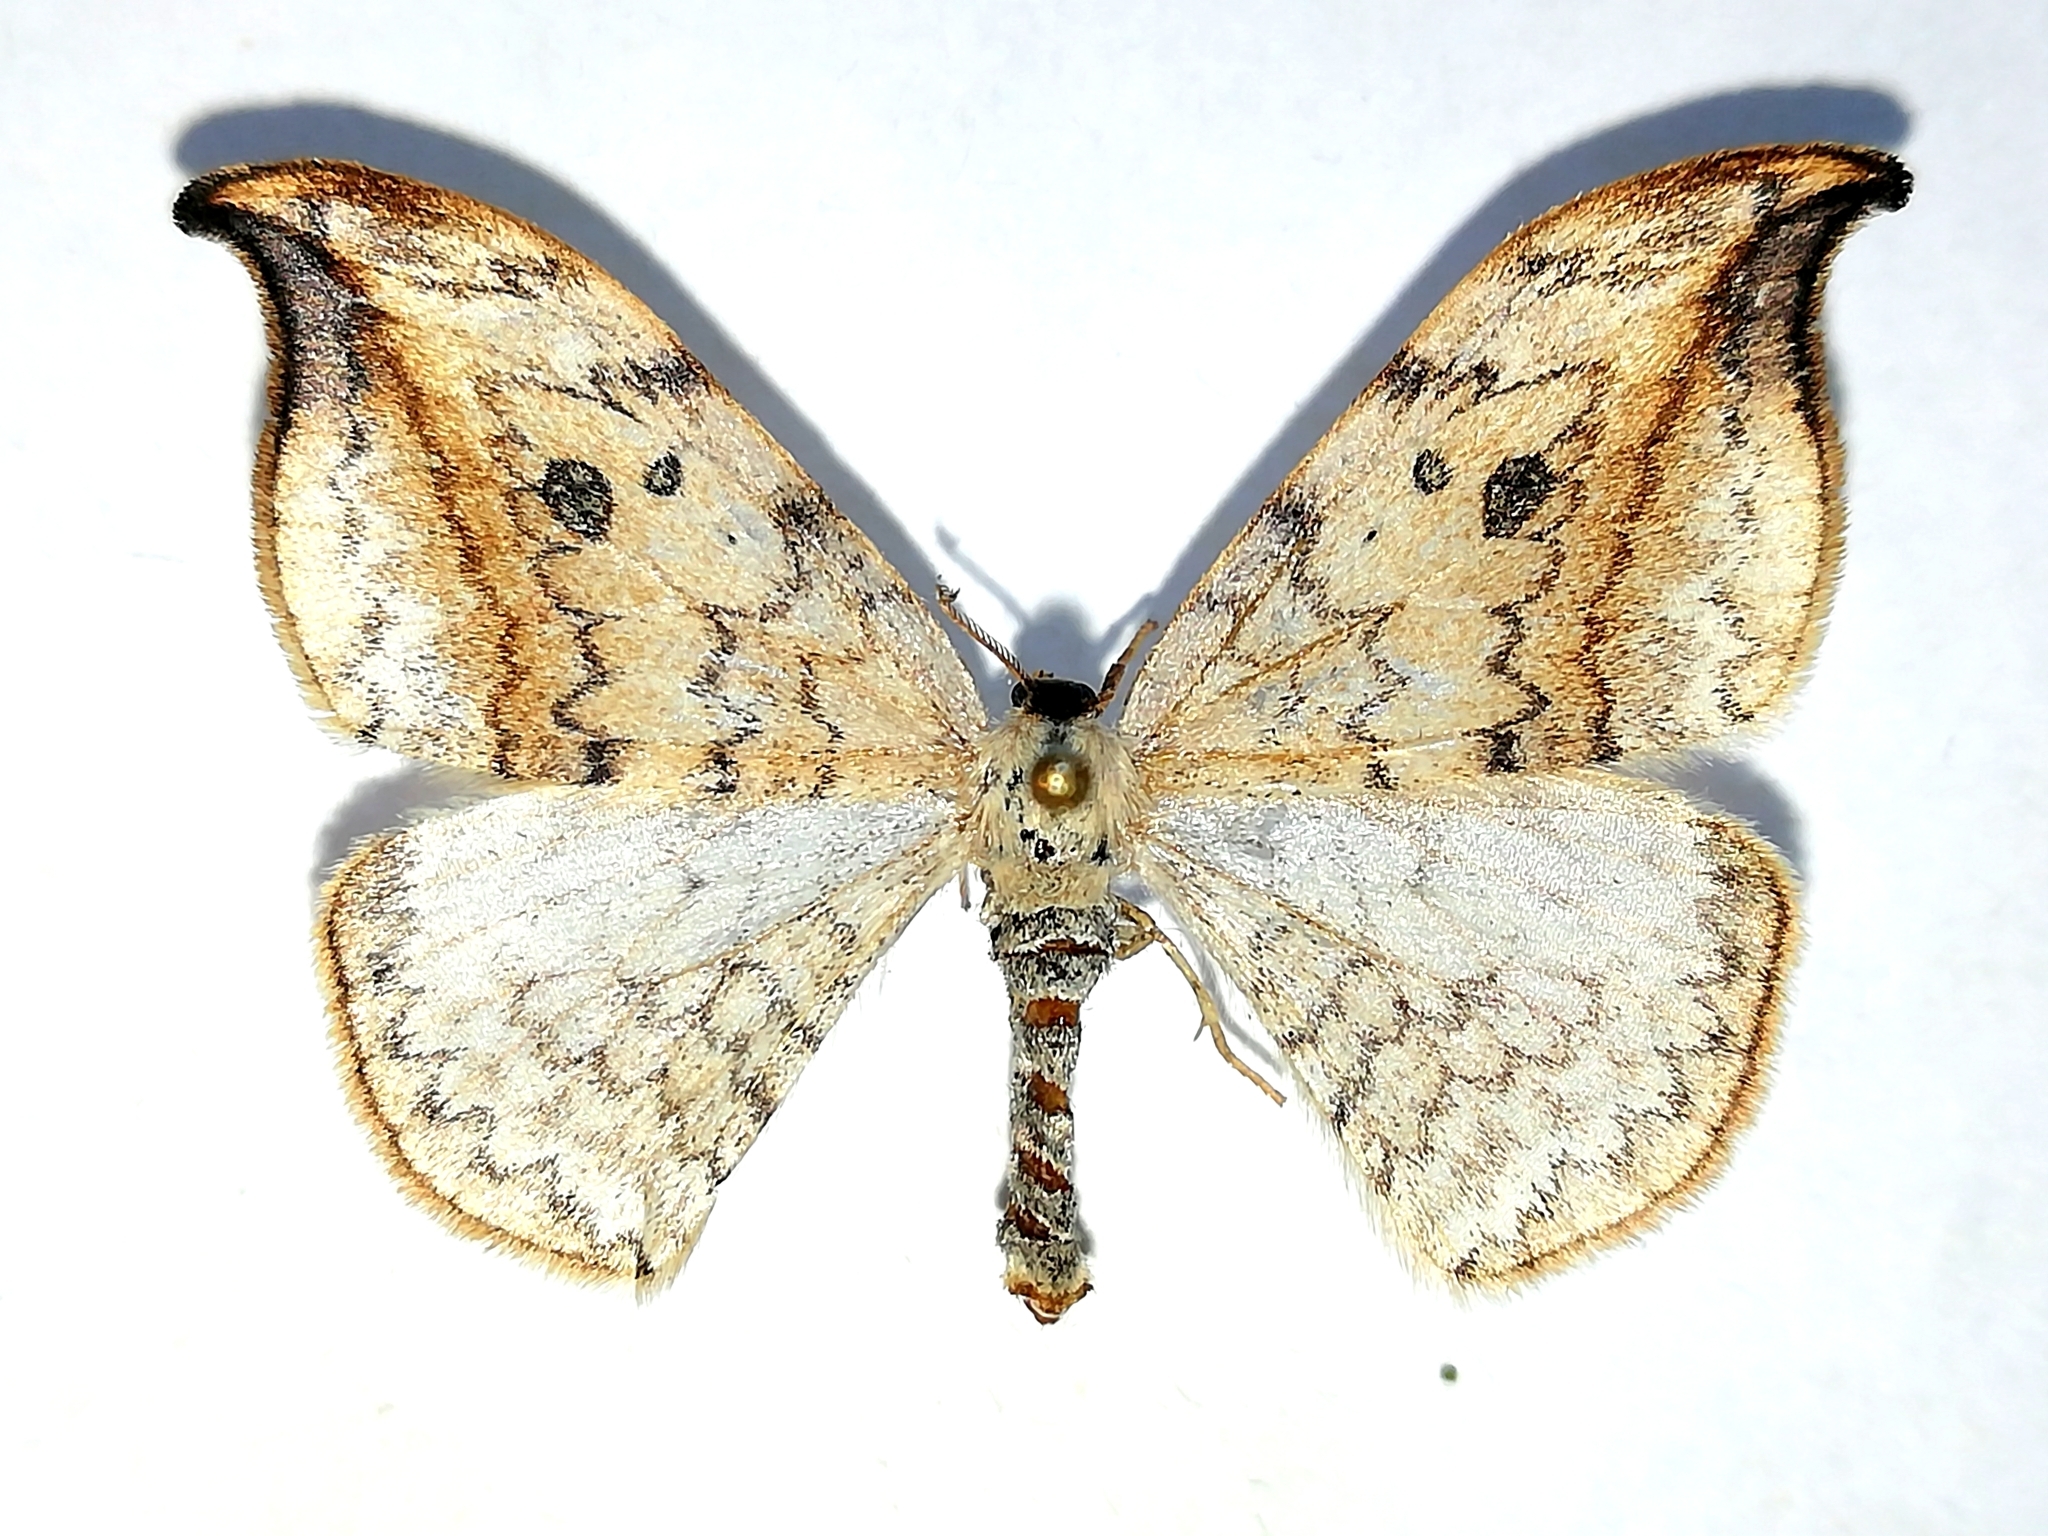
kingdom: Animalia
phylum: Arthropoda
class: Insecta
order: Lepidoptera
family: Drepanidae
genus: Drepana
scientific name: Drepana falcataria
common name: Pebble hook-tip
